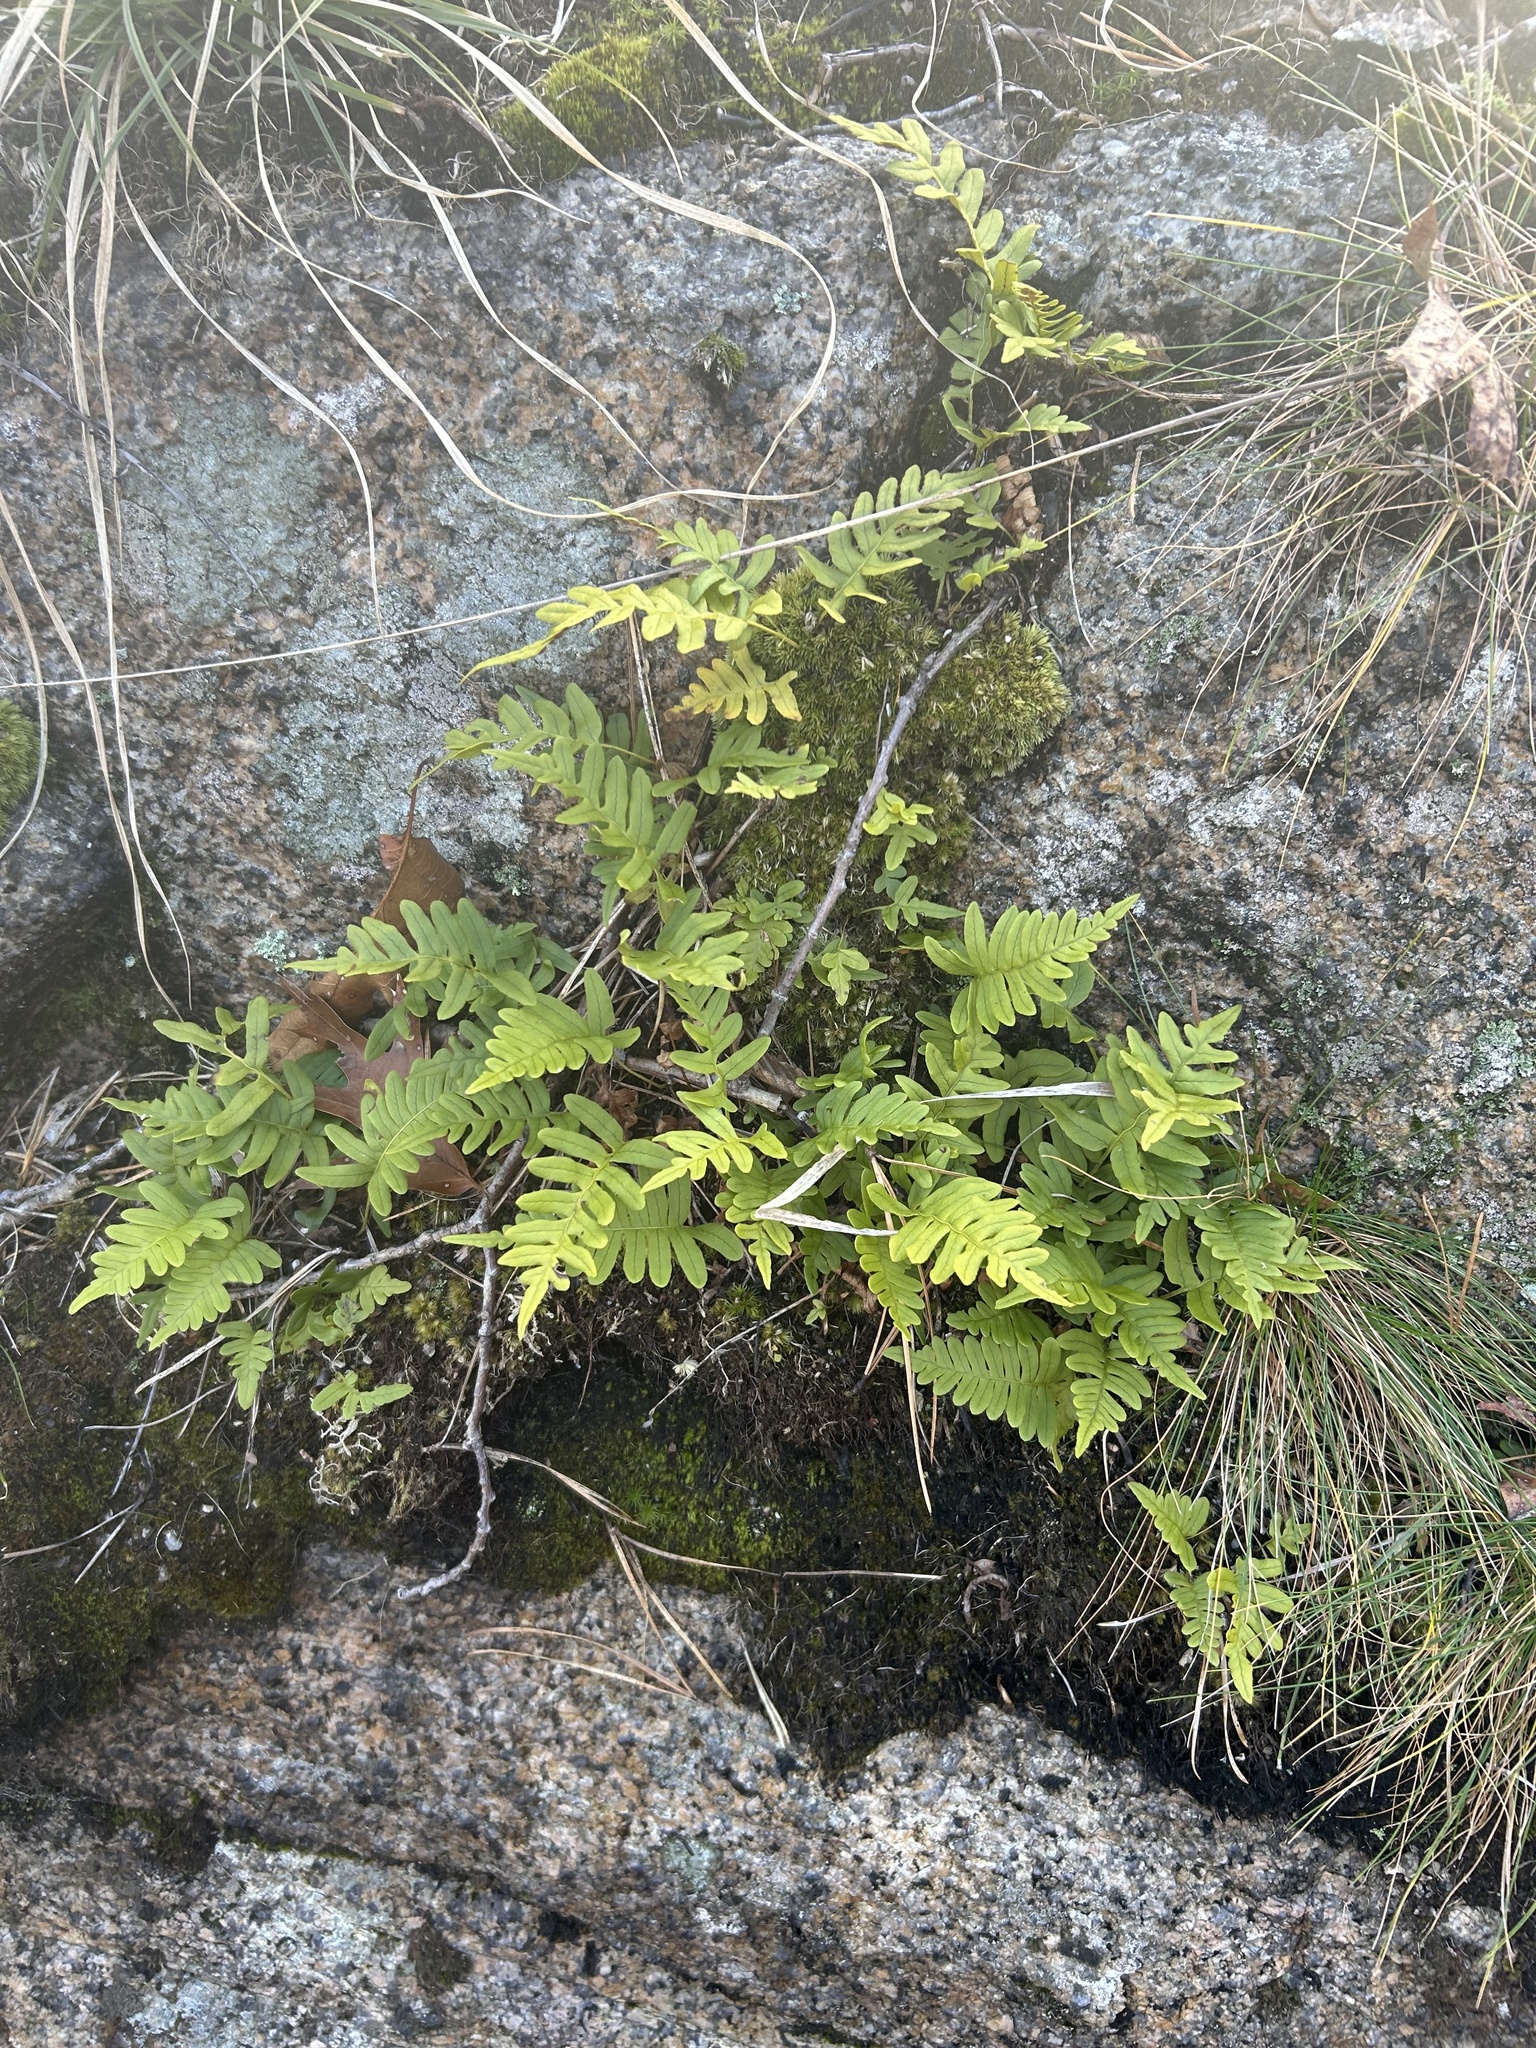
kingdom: Plantae
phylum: Tracheophyta
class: Polypodiopsida
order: Polypodiales
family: Polypodiaceae
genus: Polypodium
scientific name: Polypodium virginianum
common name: American wall fern
